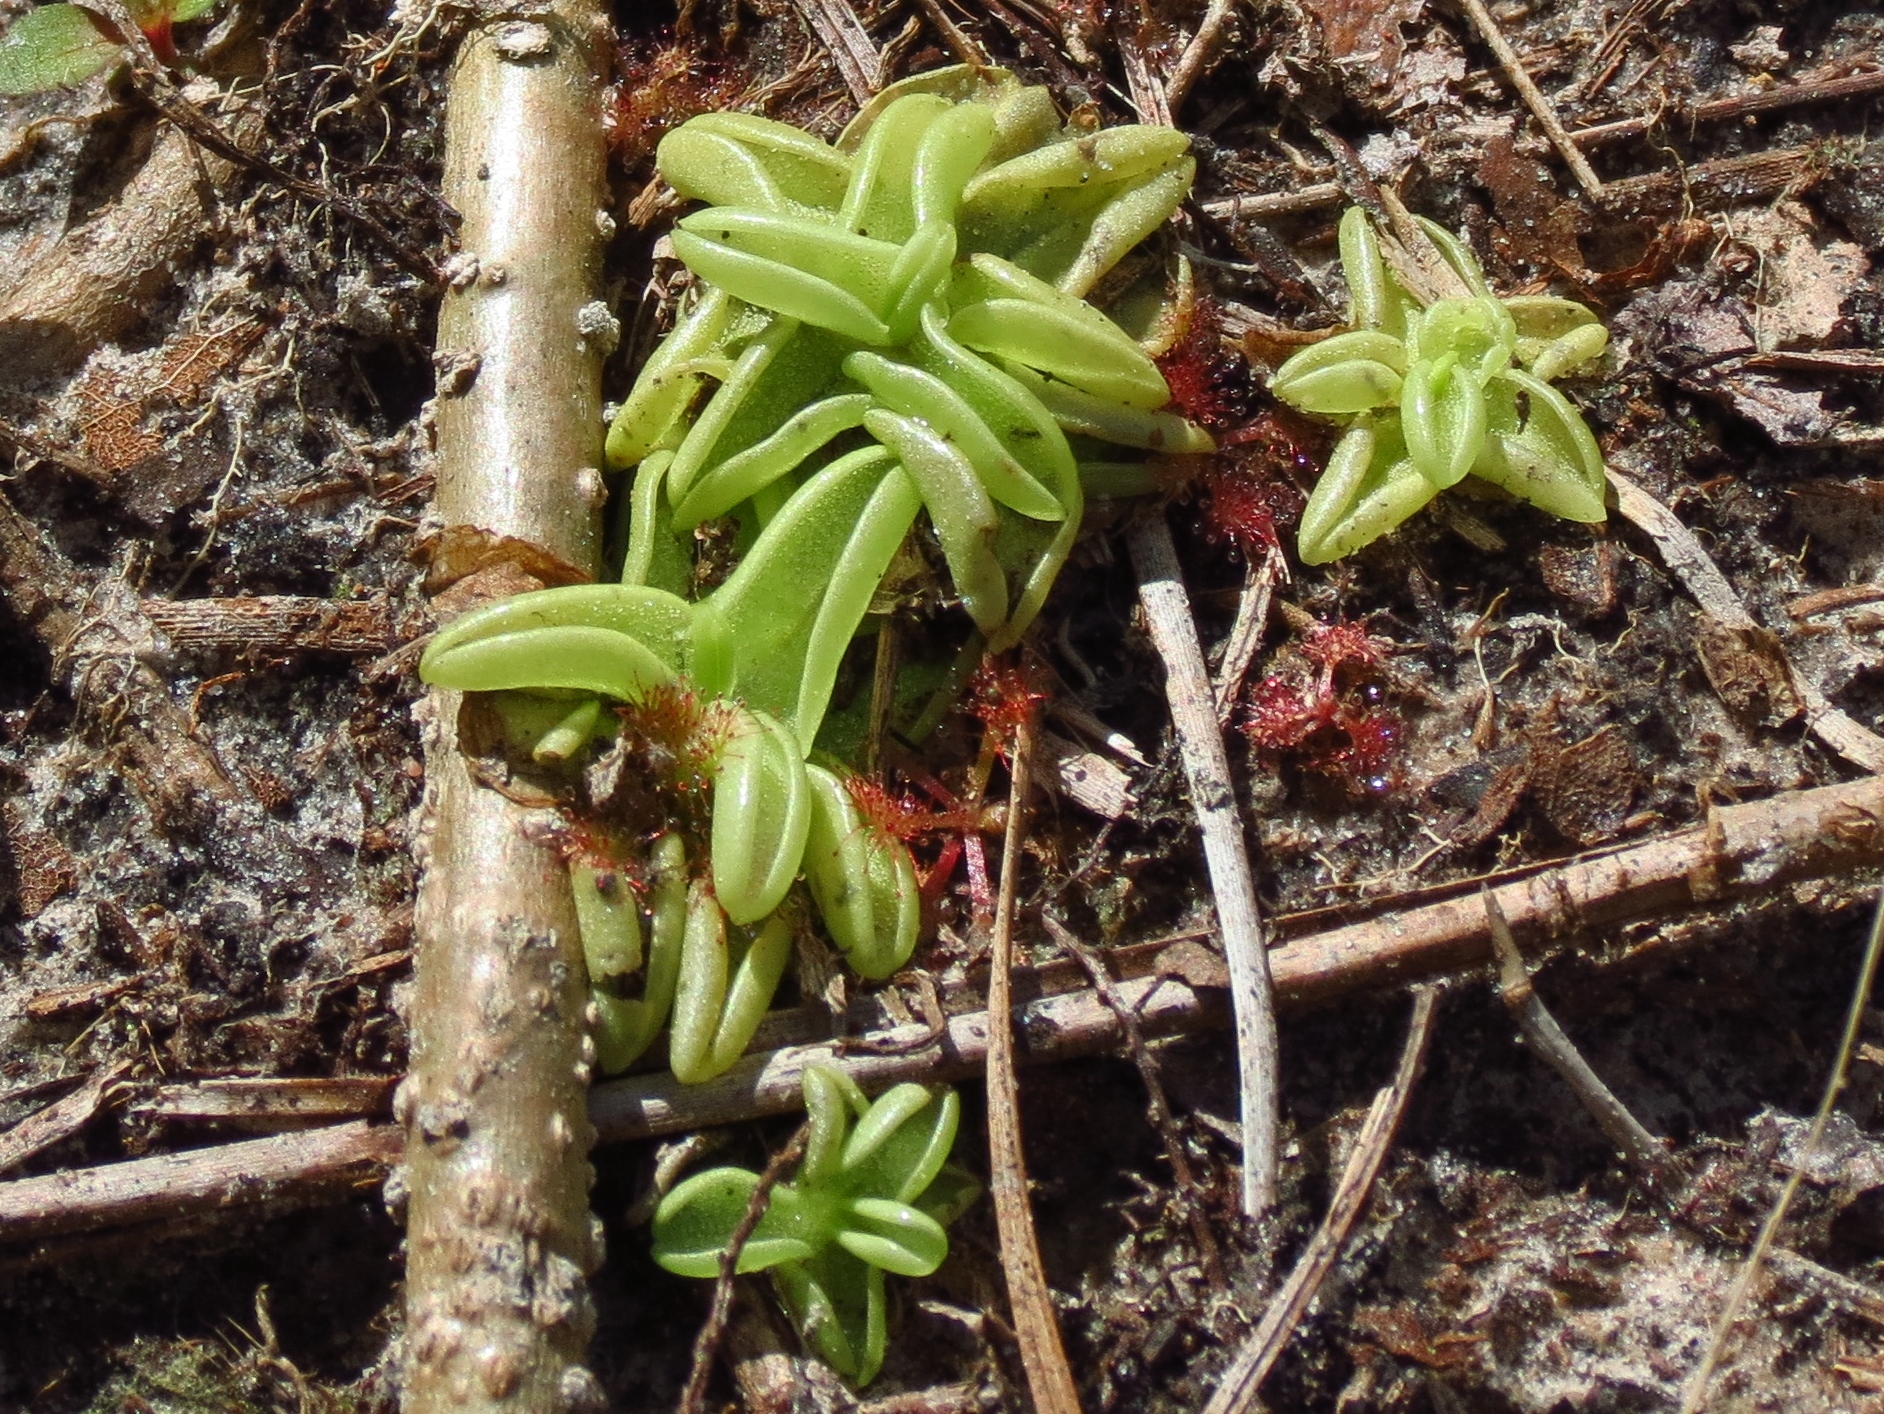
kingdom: Plantae
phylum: Tracheophyta
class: Magnoliopsida
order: Lamiales
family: Lentibulariaceae
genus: Pinguicula
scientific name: Pinguicula pumila
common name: Small butterwort
